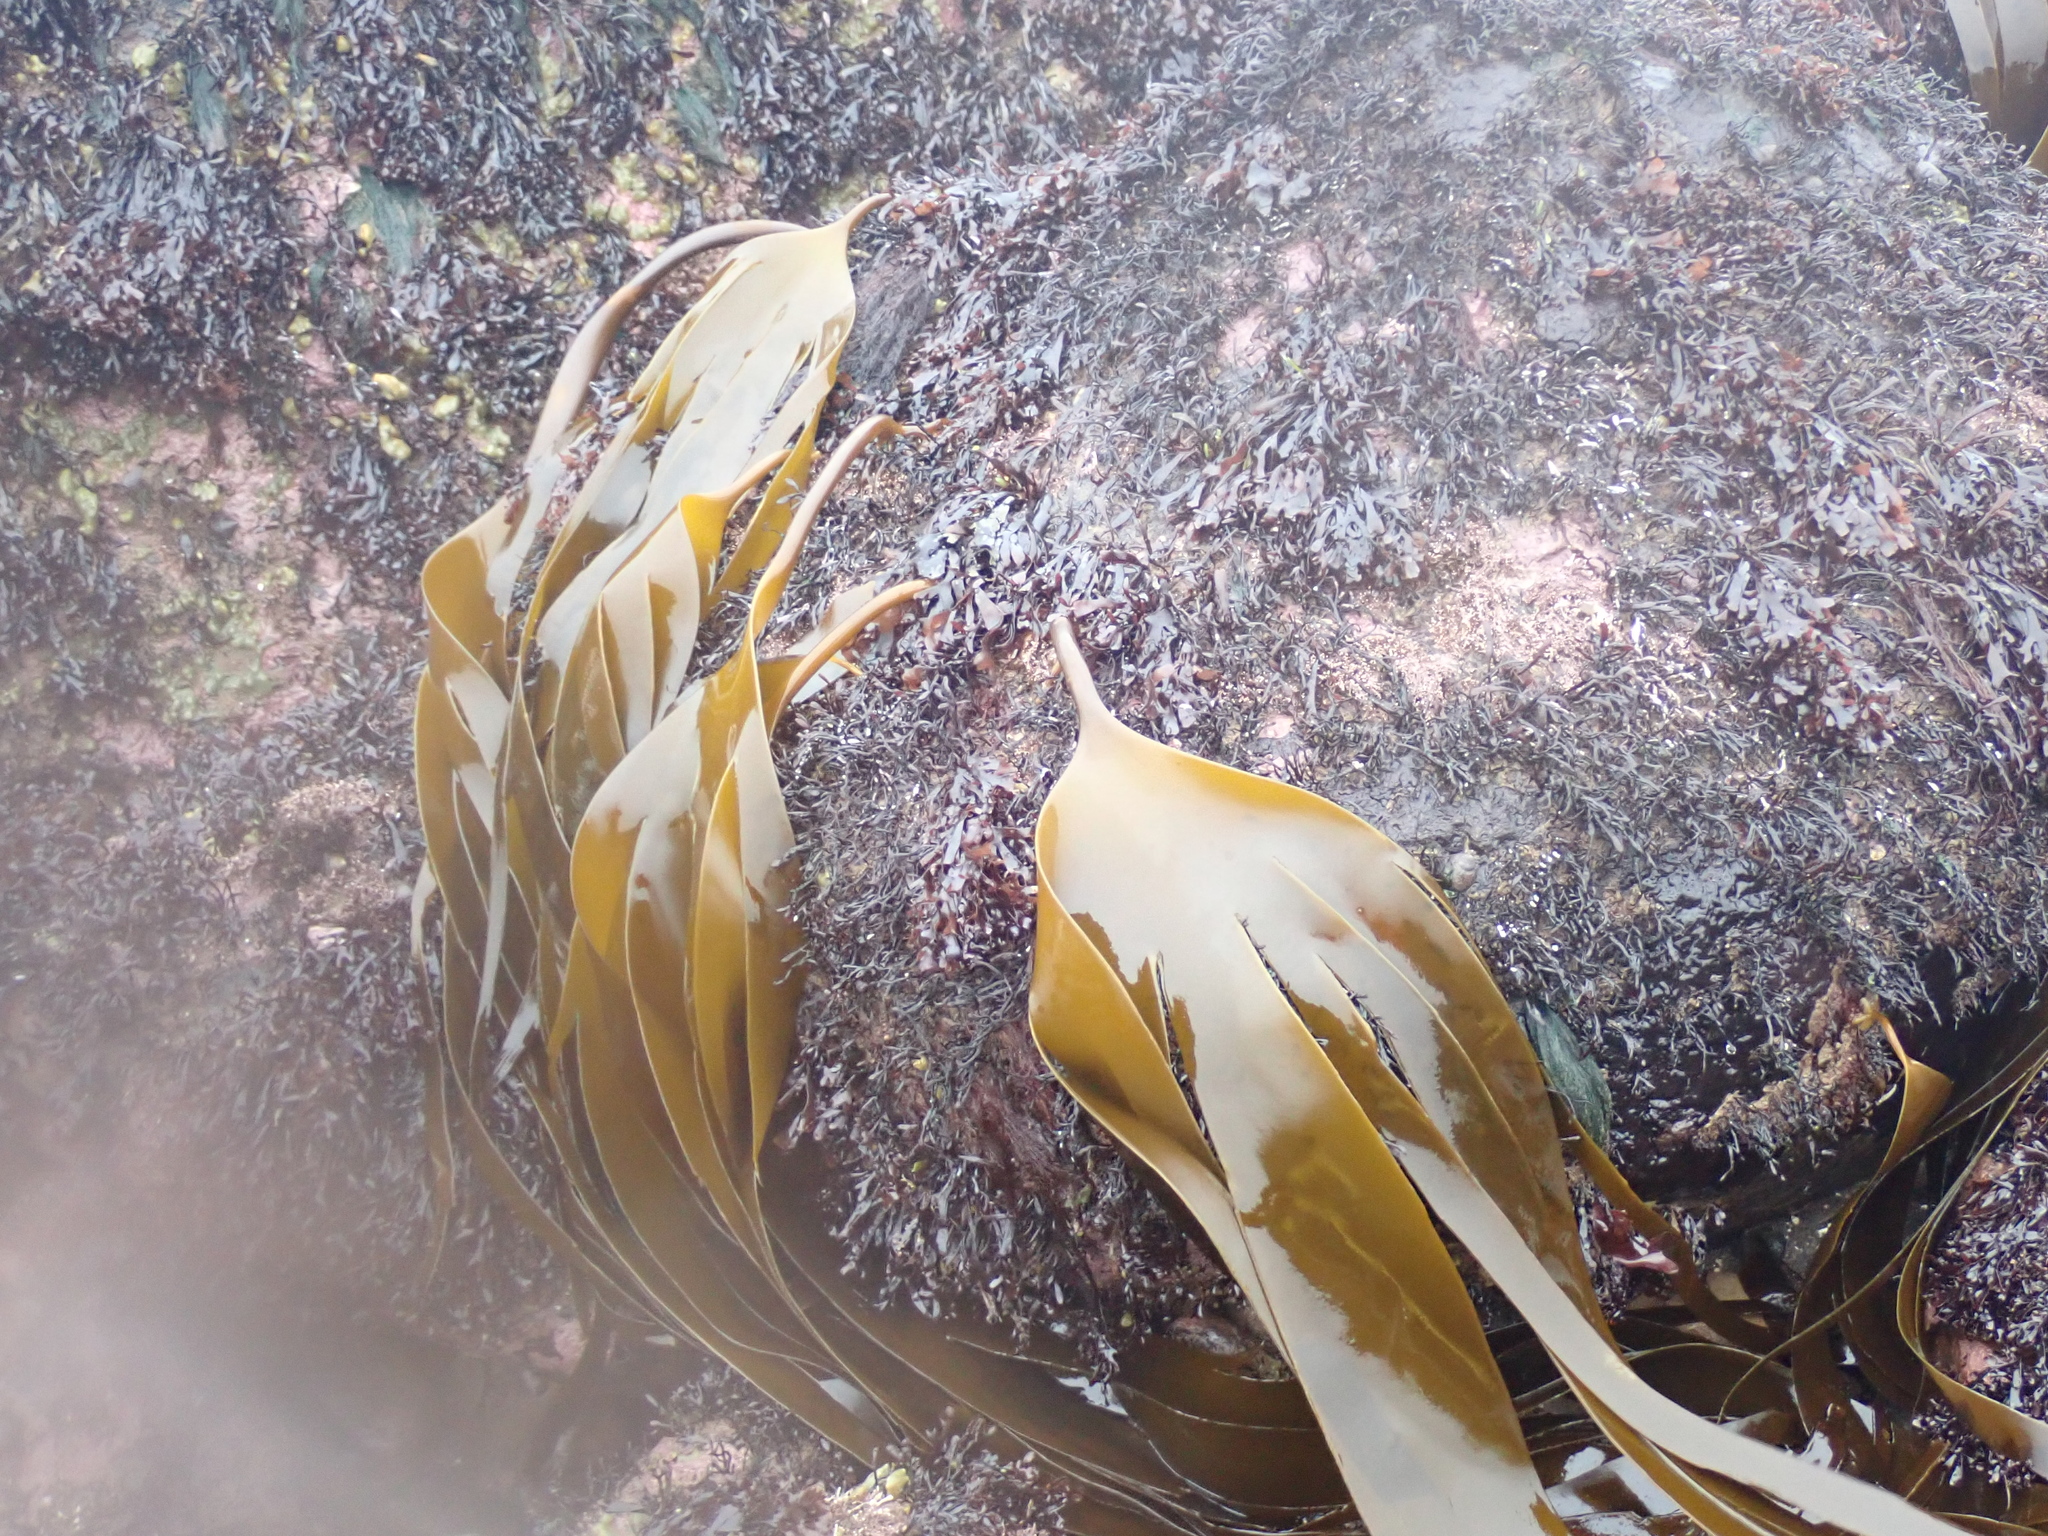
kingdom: Chromista
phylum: Ochrophyta
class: Phaeophyceae
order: Laminariales
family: Laminariaceae
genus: Laminaria
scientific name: Laminaria digitata
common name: Oarweed
